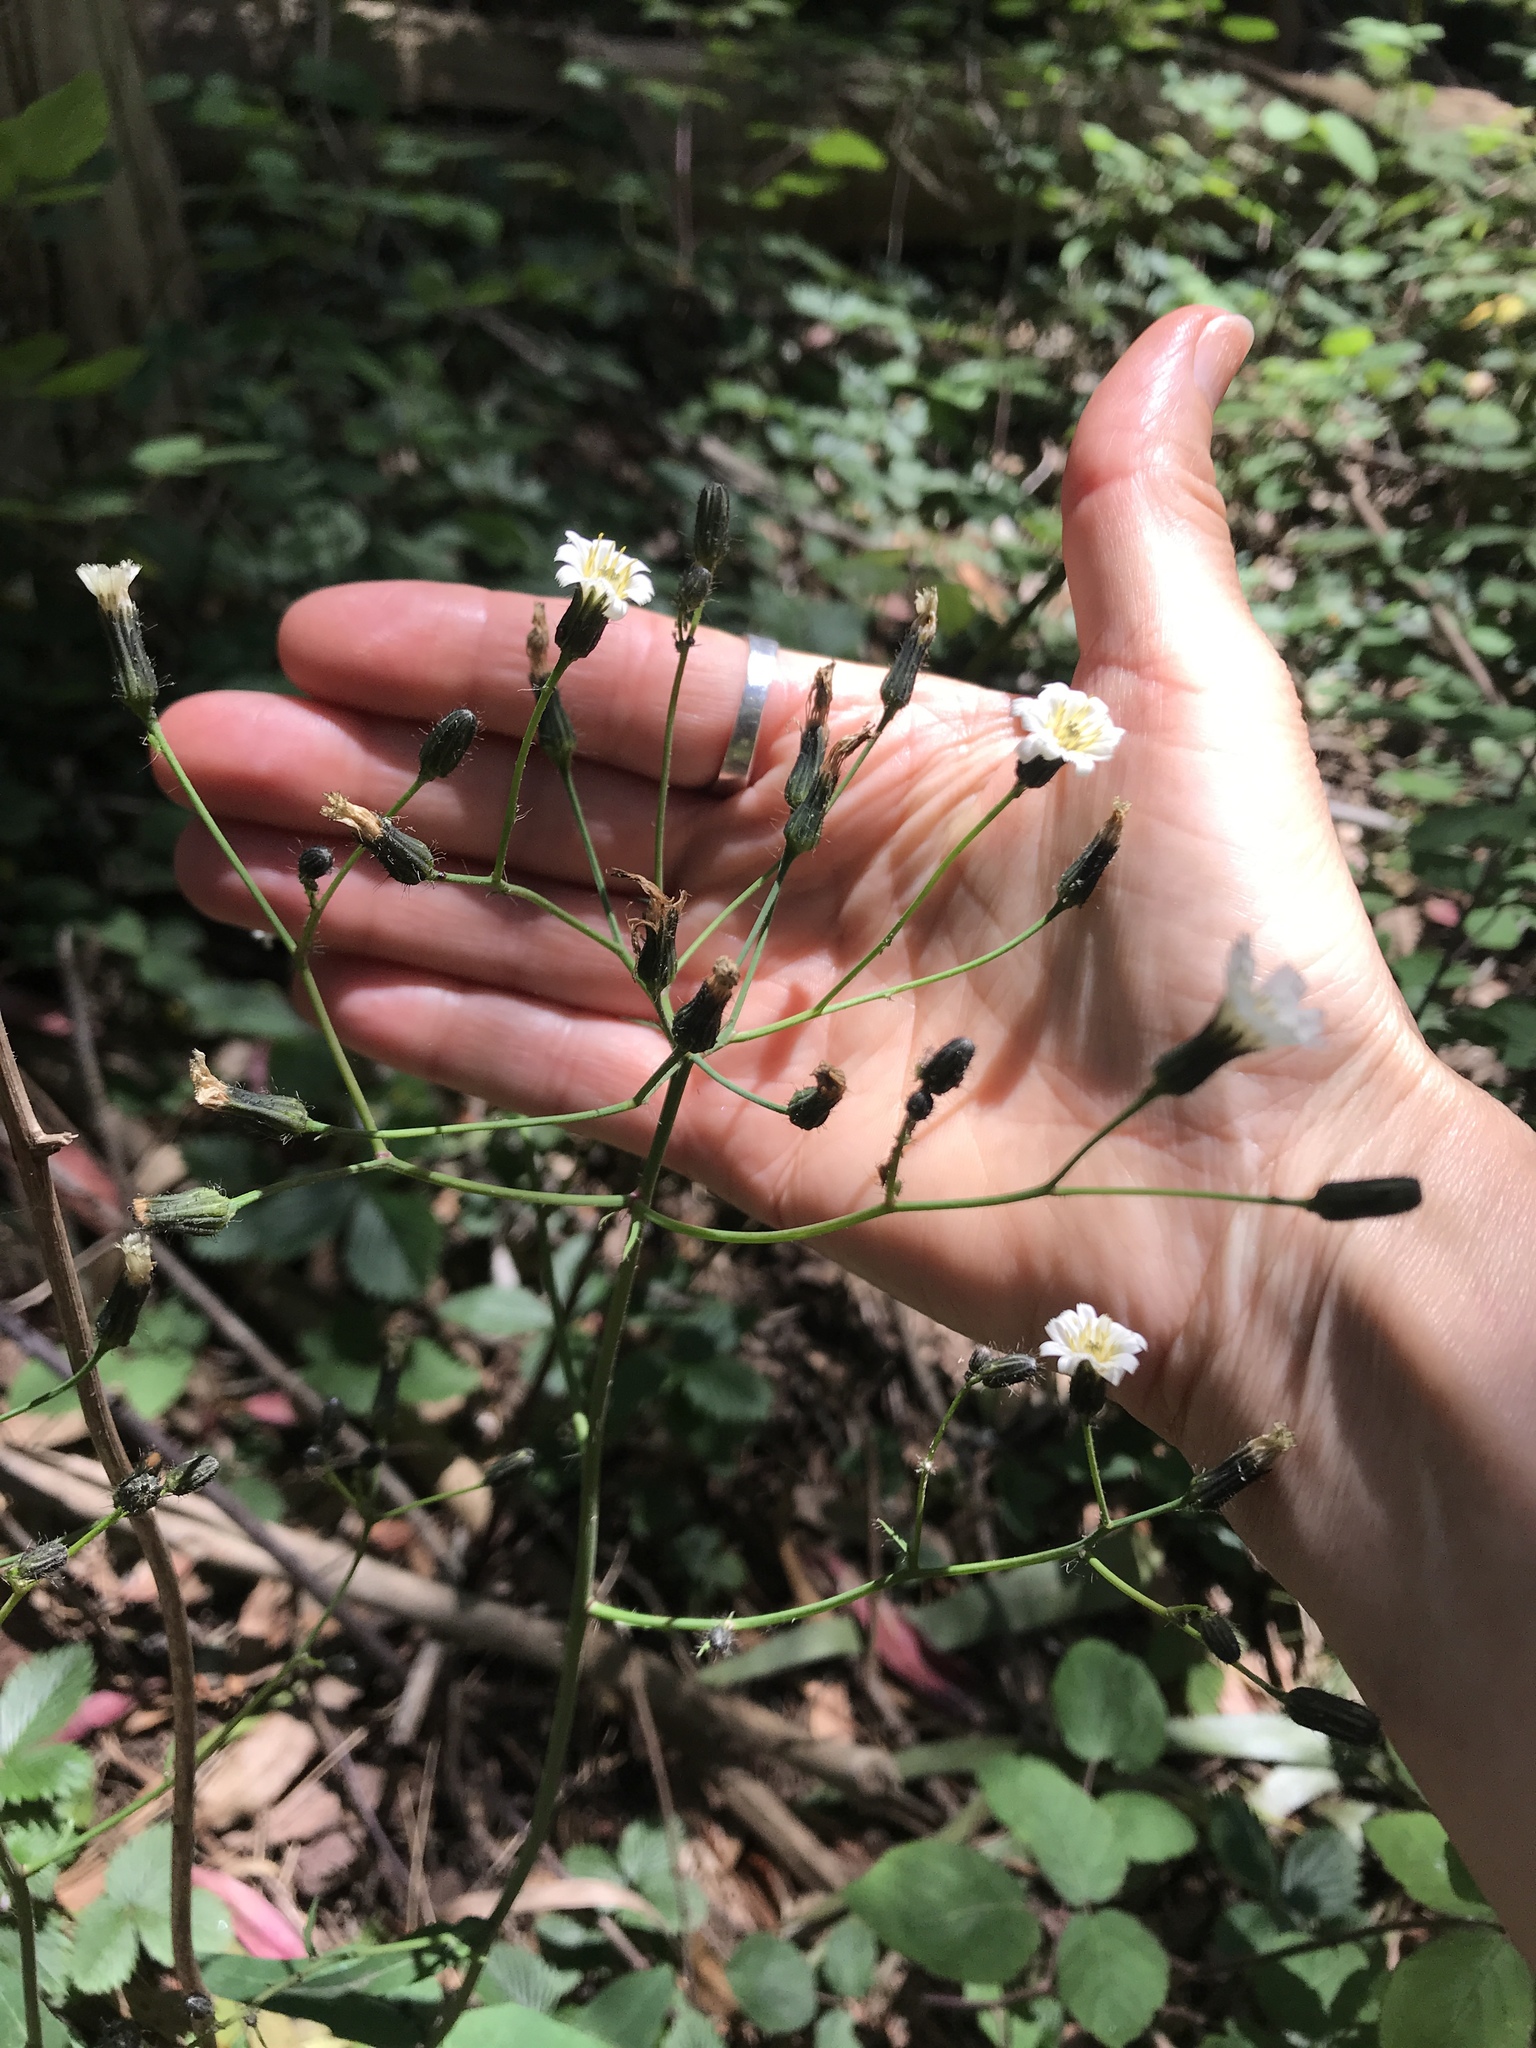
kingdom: Plantae
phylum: Tracheophyta
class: Magnoliopsida
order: Asterales
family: Asteraceae
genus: Hieracium
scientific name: Hieracium albiflorum
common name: White hawkweed
